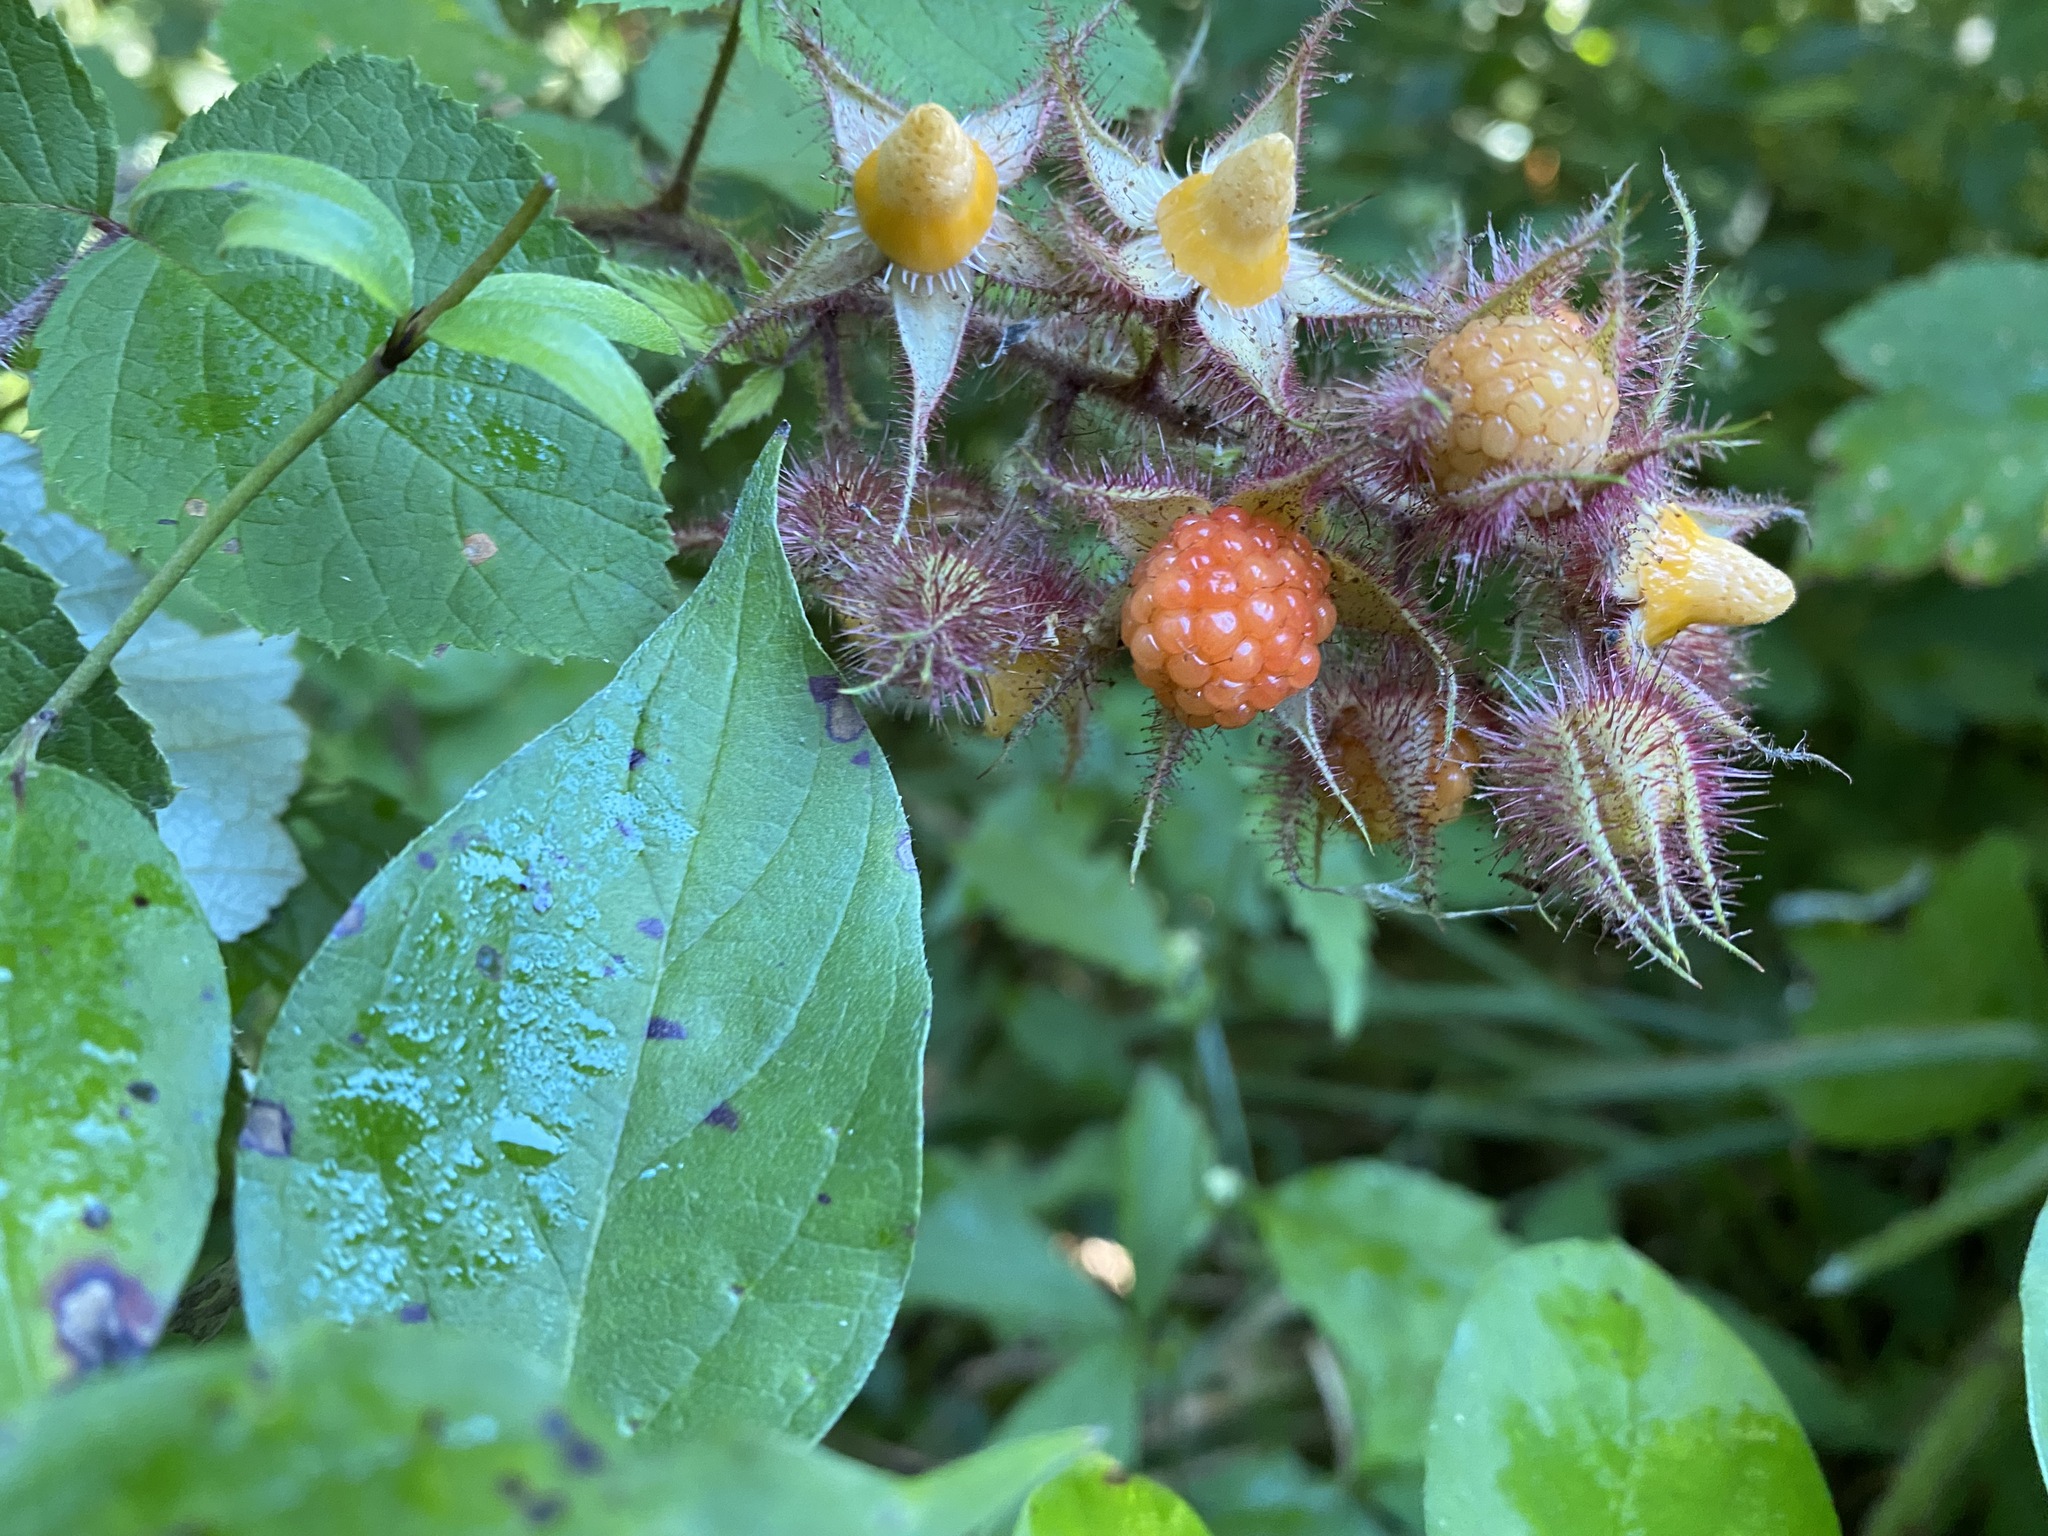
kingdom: Plantae
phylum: Tracheophyta
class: Magnoliopsida
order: Rosales
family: Rosaceae
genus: Rubus
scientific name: Rubus phoenicolasius
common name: Japanese wineberry
